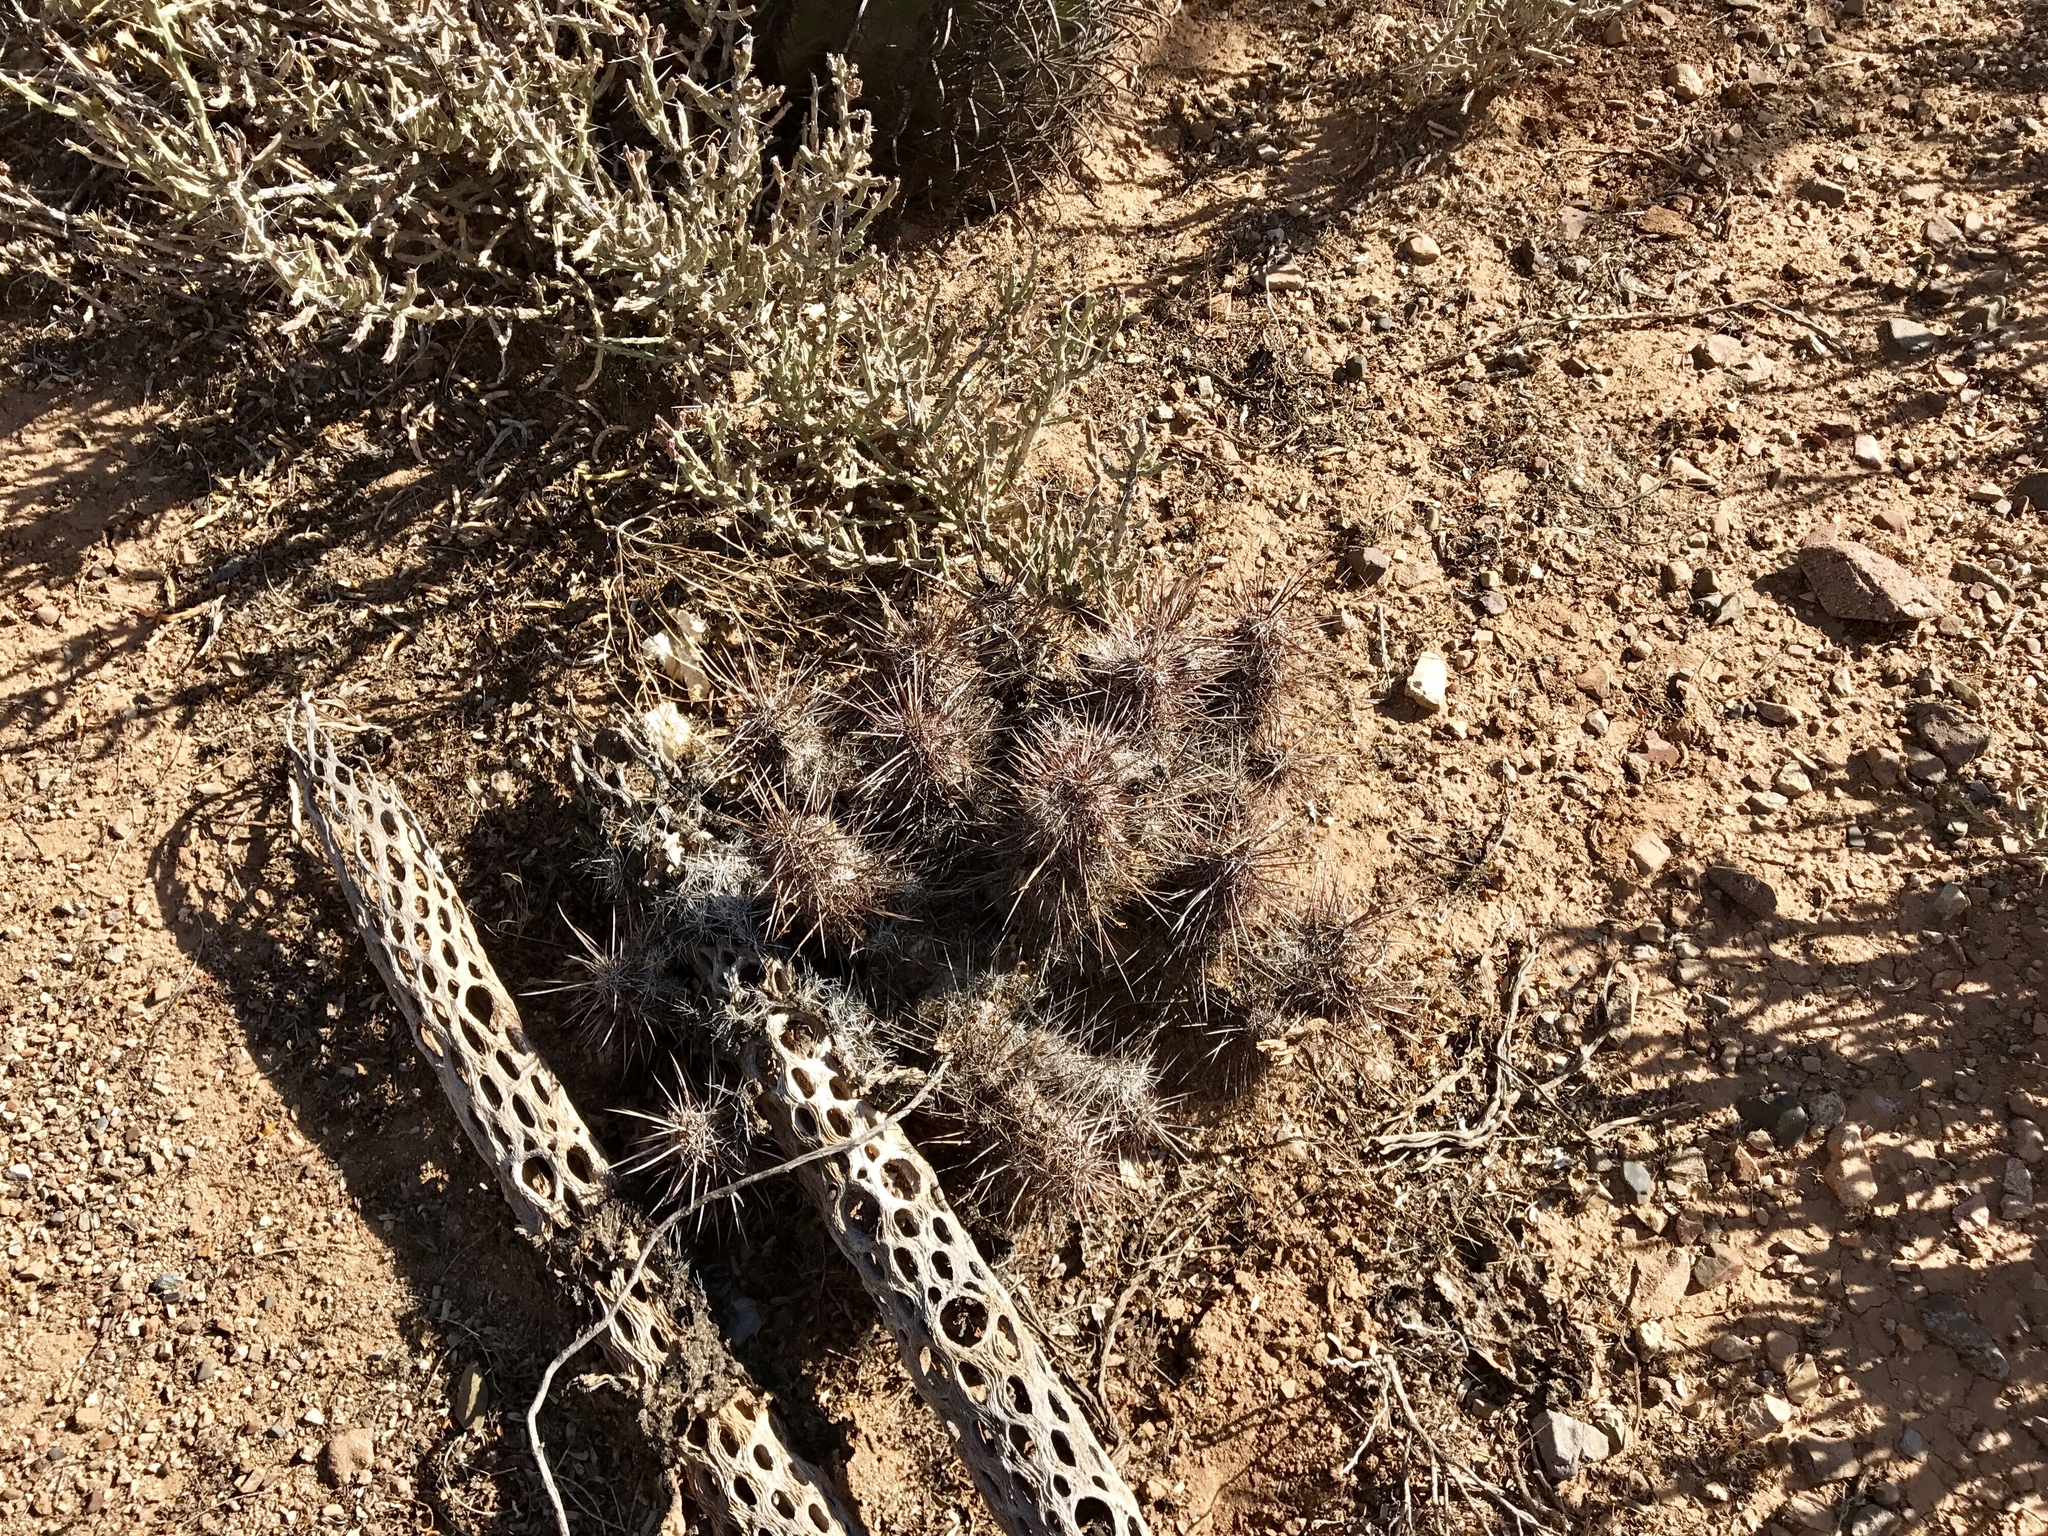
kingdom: Plantae
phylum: Tracheophyta
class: Magnoliopsida
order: Caryophyllales
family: Cactaceae
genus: Echinocereus
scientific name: Echinocereus fasciculatus
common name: Bundle hedgehog
